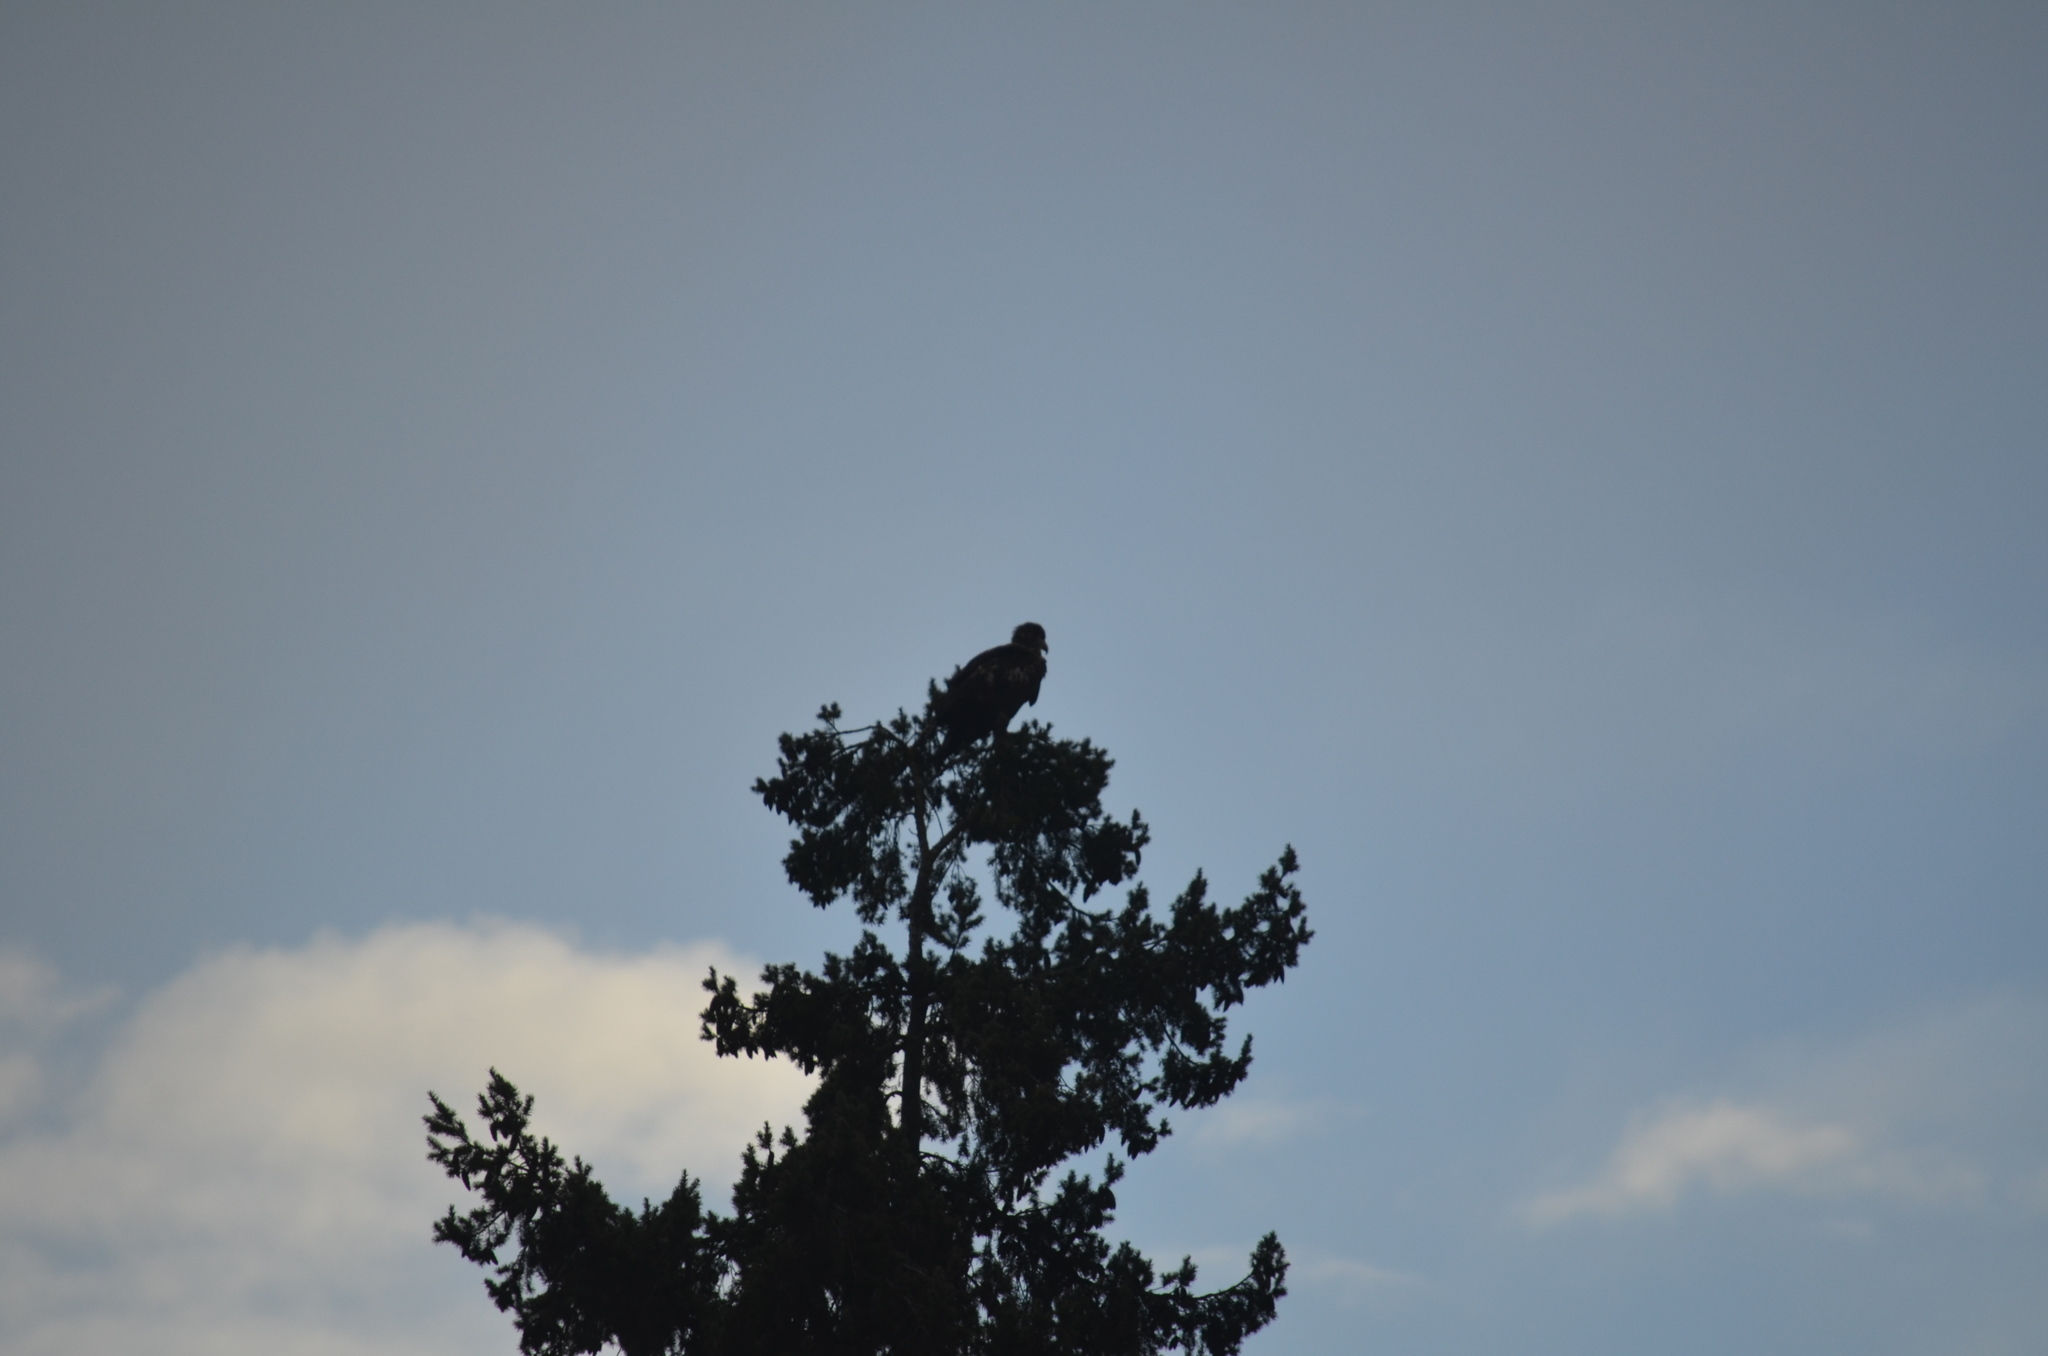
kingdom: Animalia
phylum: Chordata
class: Aves
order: Accipitriformes
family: Accipitridae
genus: Haliaeetus
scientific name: Haliaeetus leucocephalus
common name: Bald eagle
